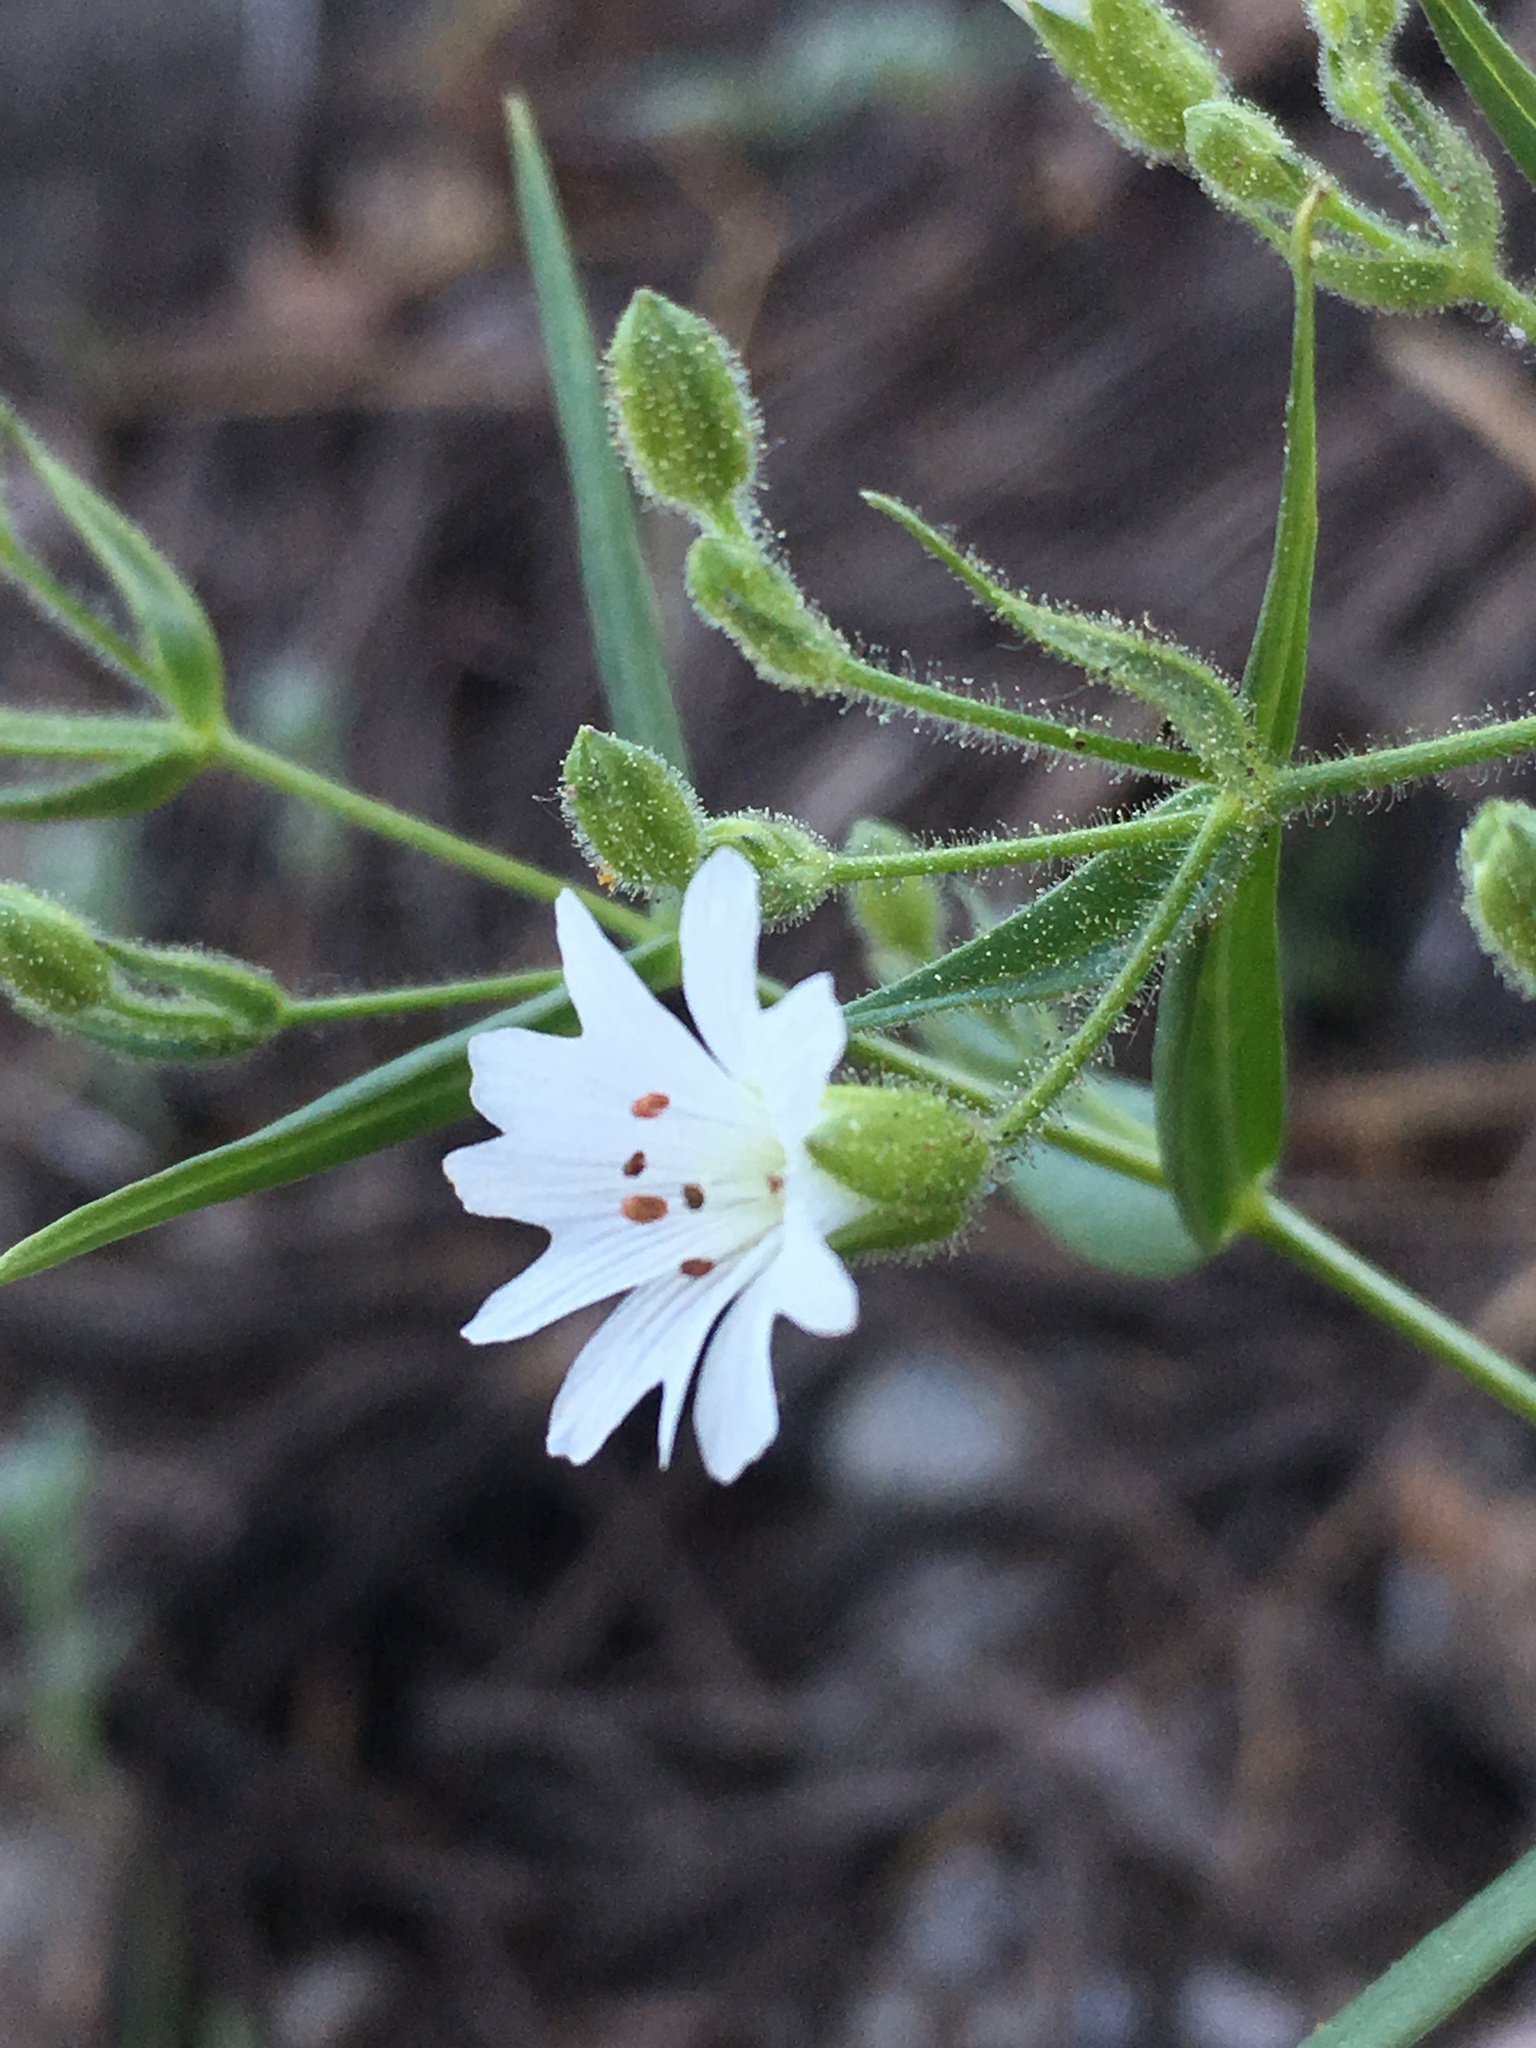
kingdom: Plantae
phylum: Tracheophyta
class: Magnoliopsida
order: Caryophyllales
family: Caryophyllaceae
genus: Schizotechium
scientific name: Schizotechium jamesianum
